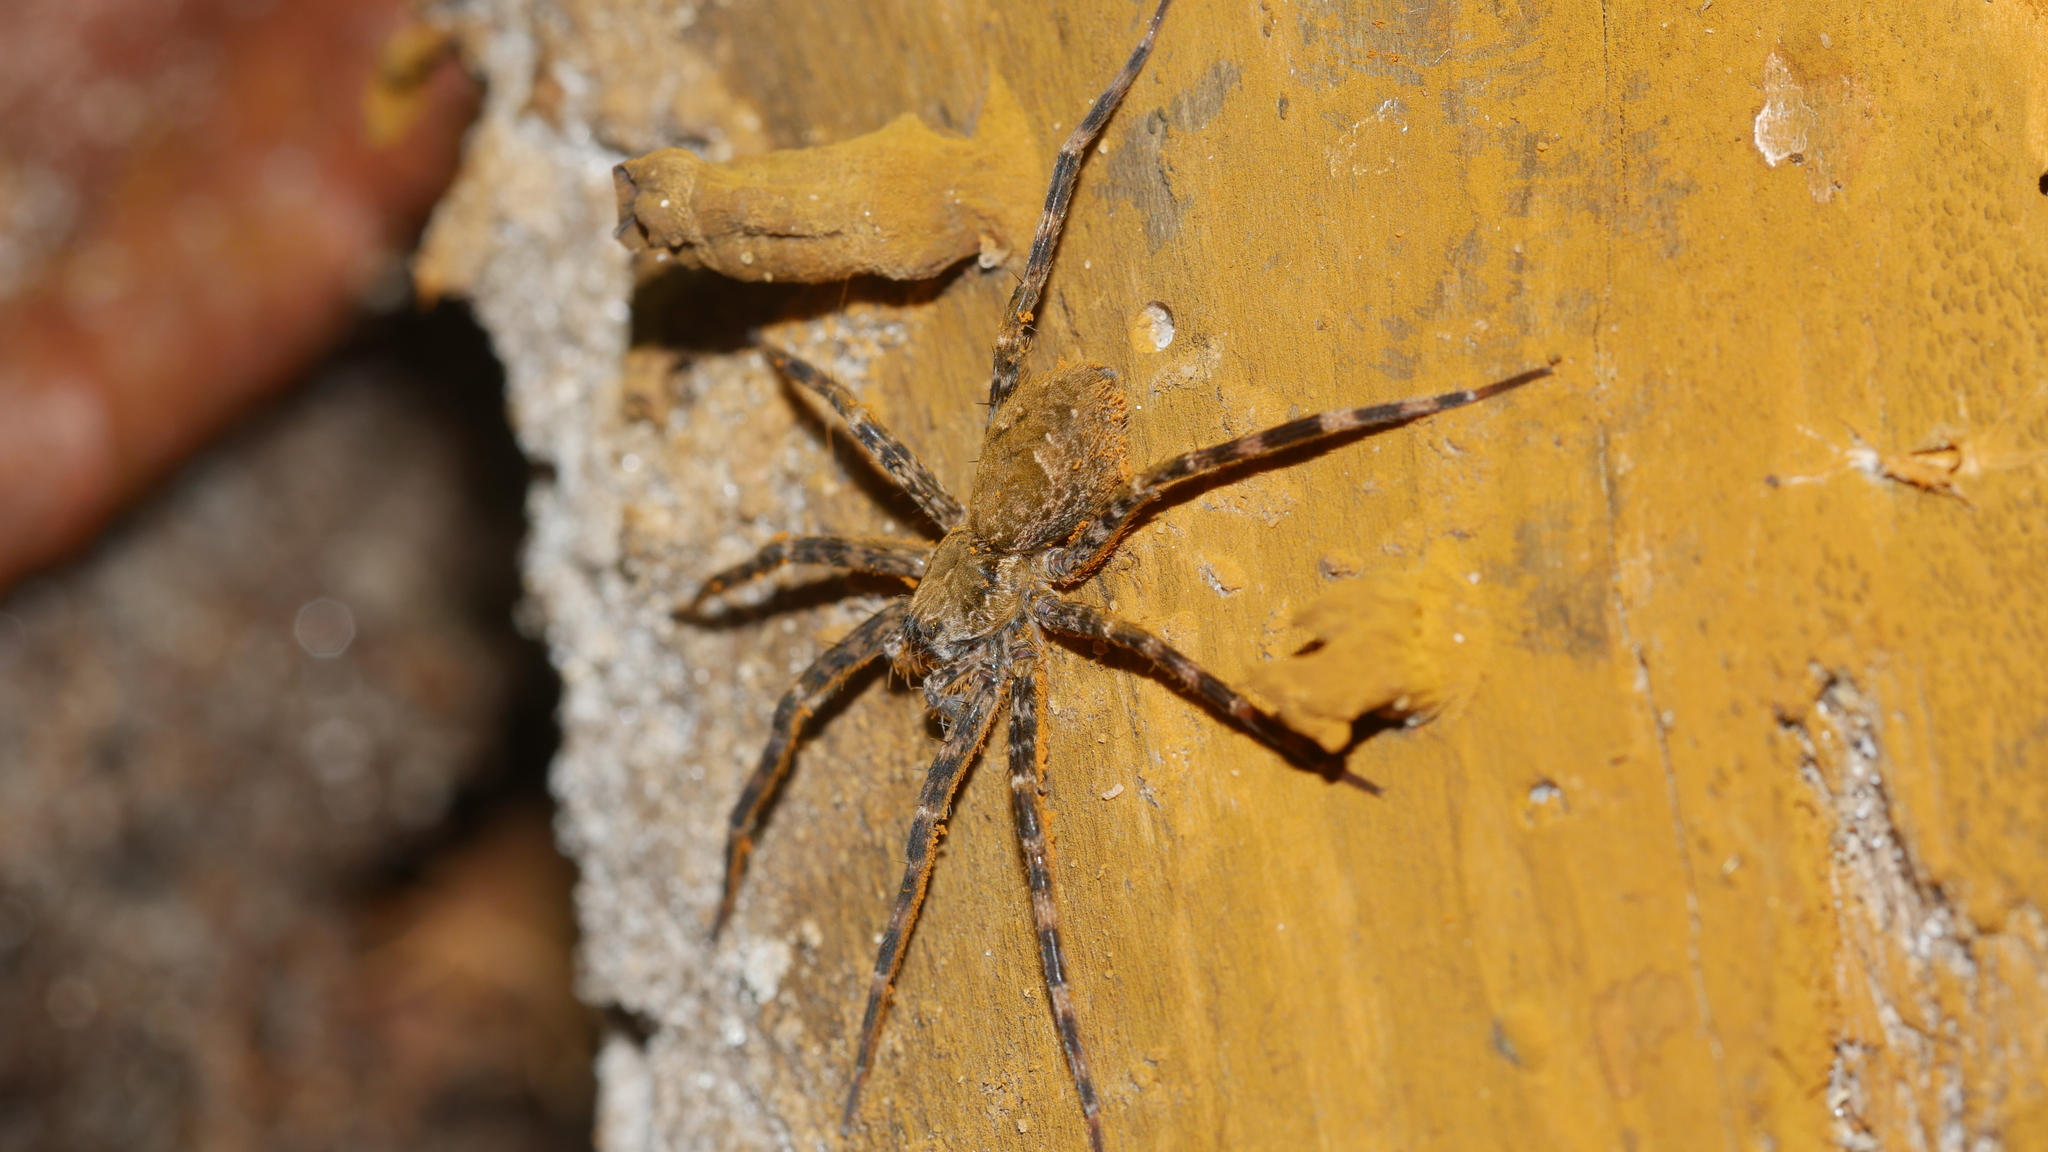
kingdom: Animalia
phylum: Arthropoda
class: Arachnida
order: Araneae
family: Pisauridae
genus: Dolomedes
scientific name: Dolomedes tenebrosus
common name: Dark fishing spider
